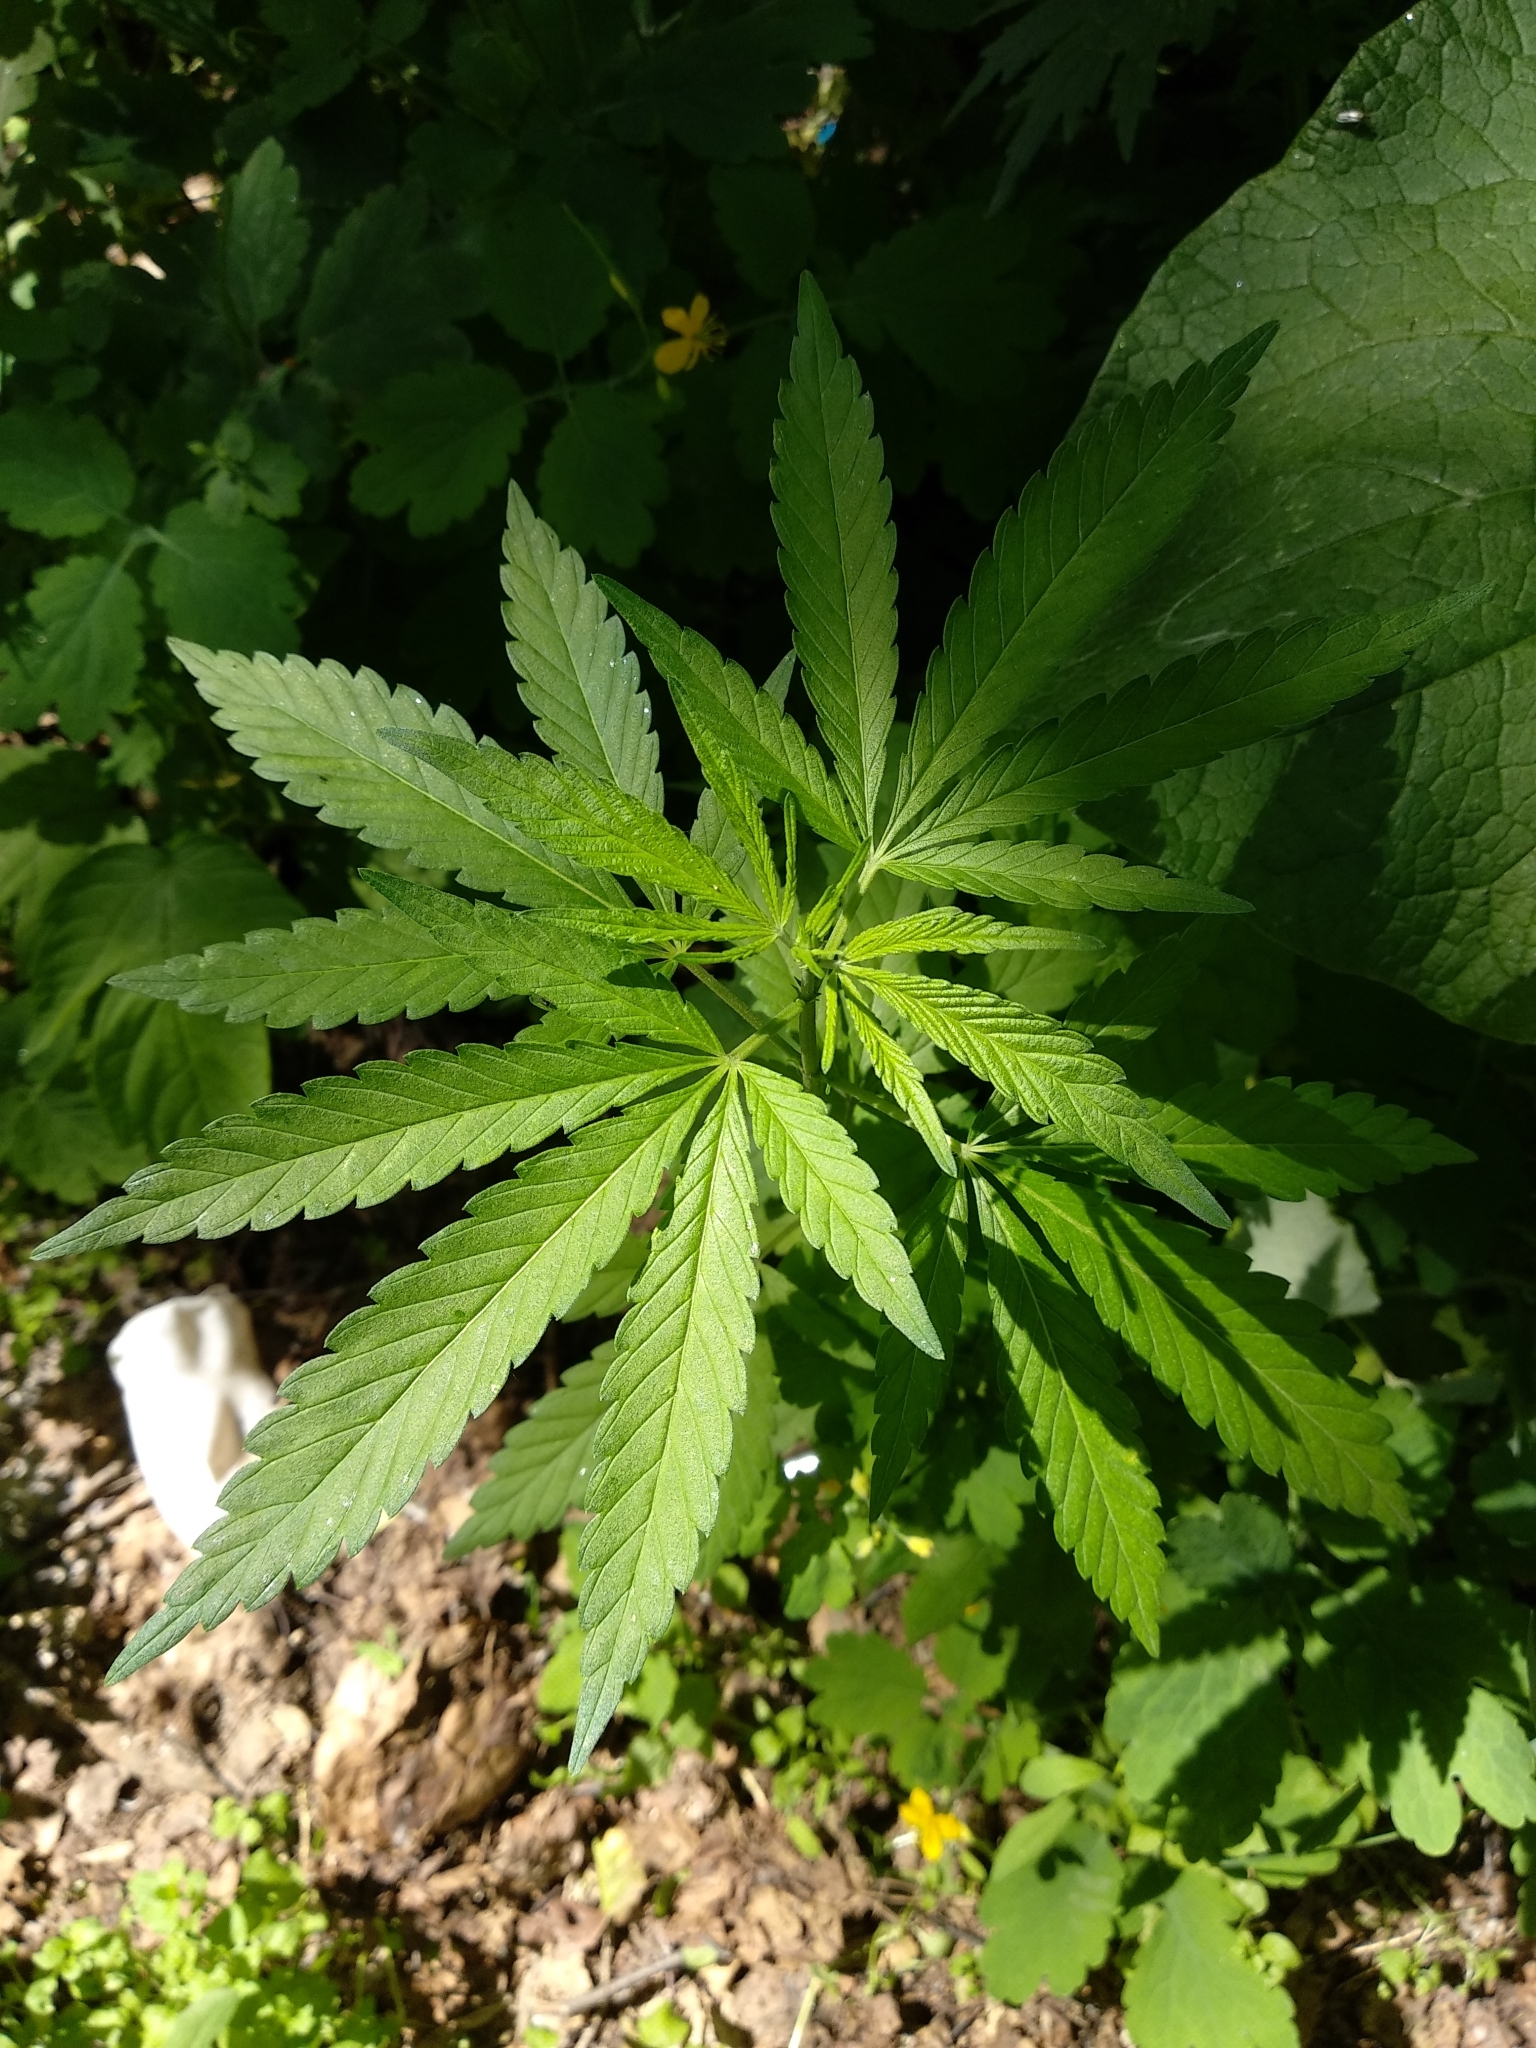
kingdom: Plantae
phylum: Tracheophyta
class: Magnoliopsida
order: Rosales
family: Cannabaceae
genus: Cannabis
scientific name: Cannabis sativa
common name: Hemp
